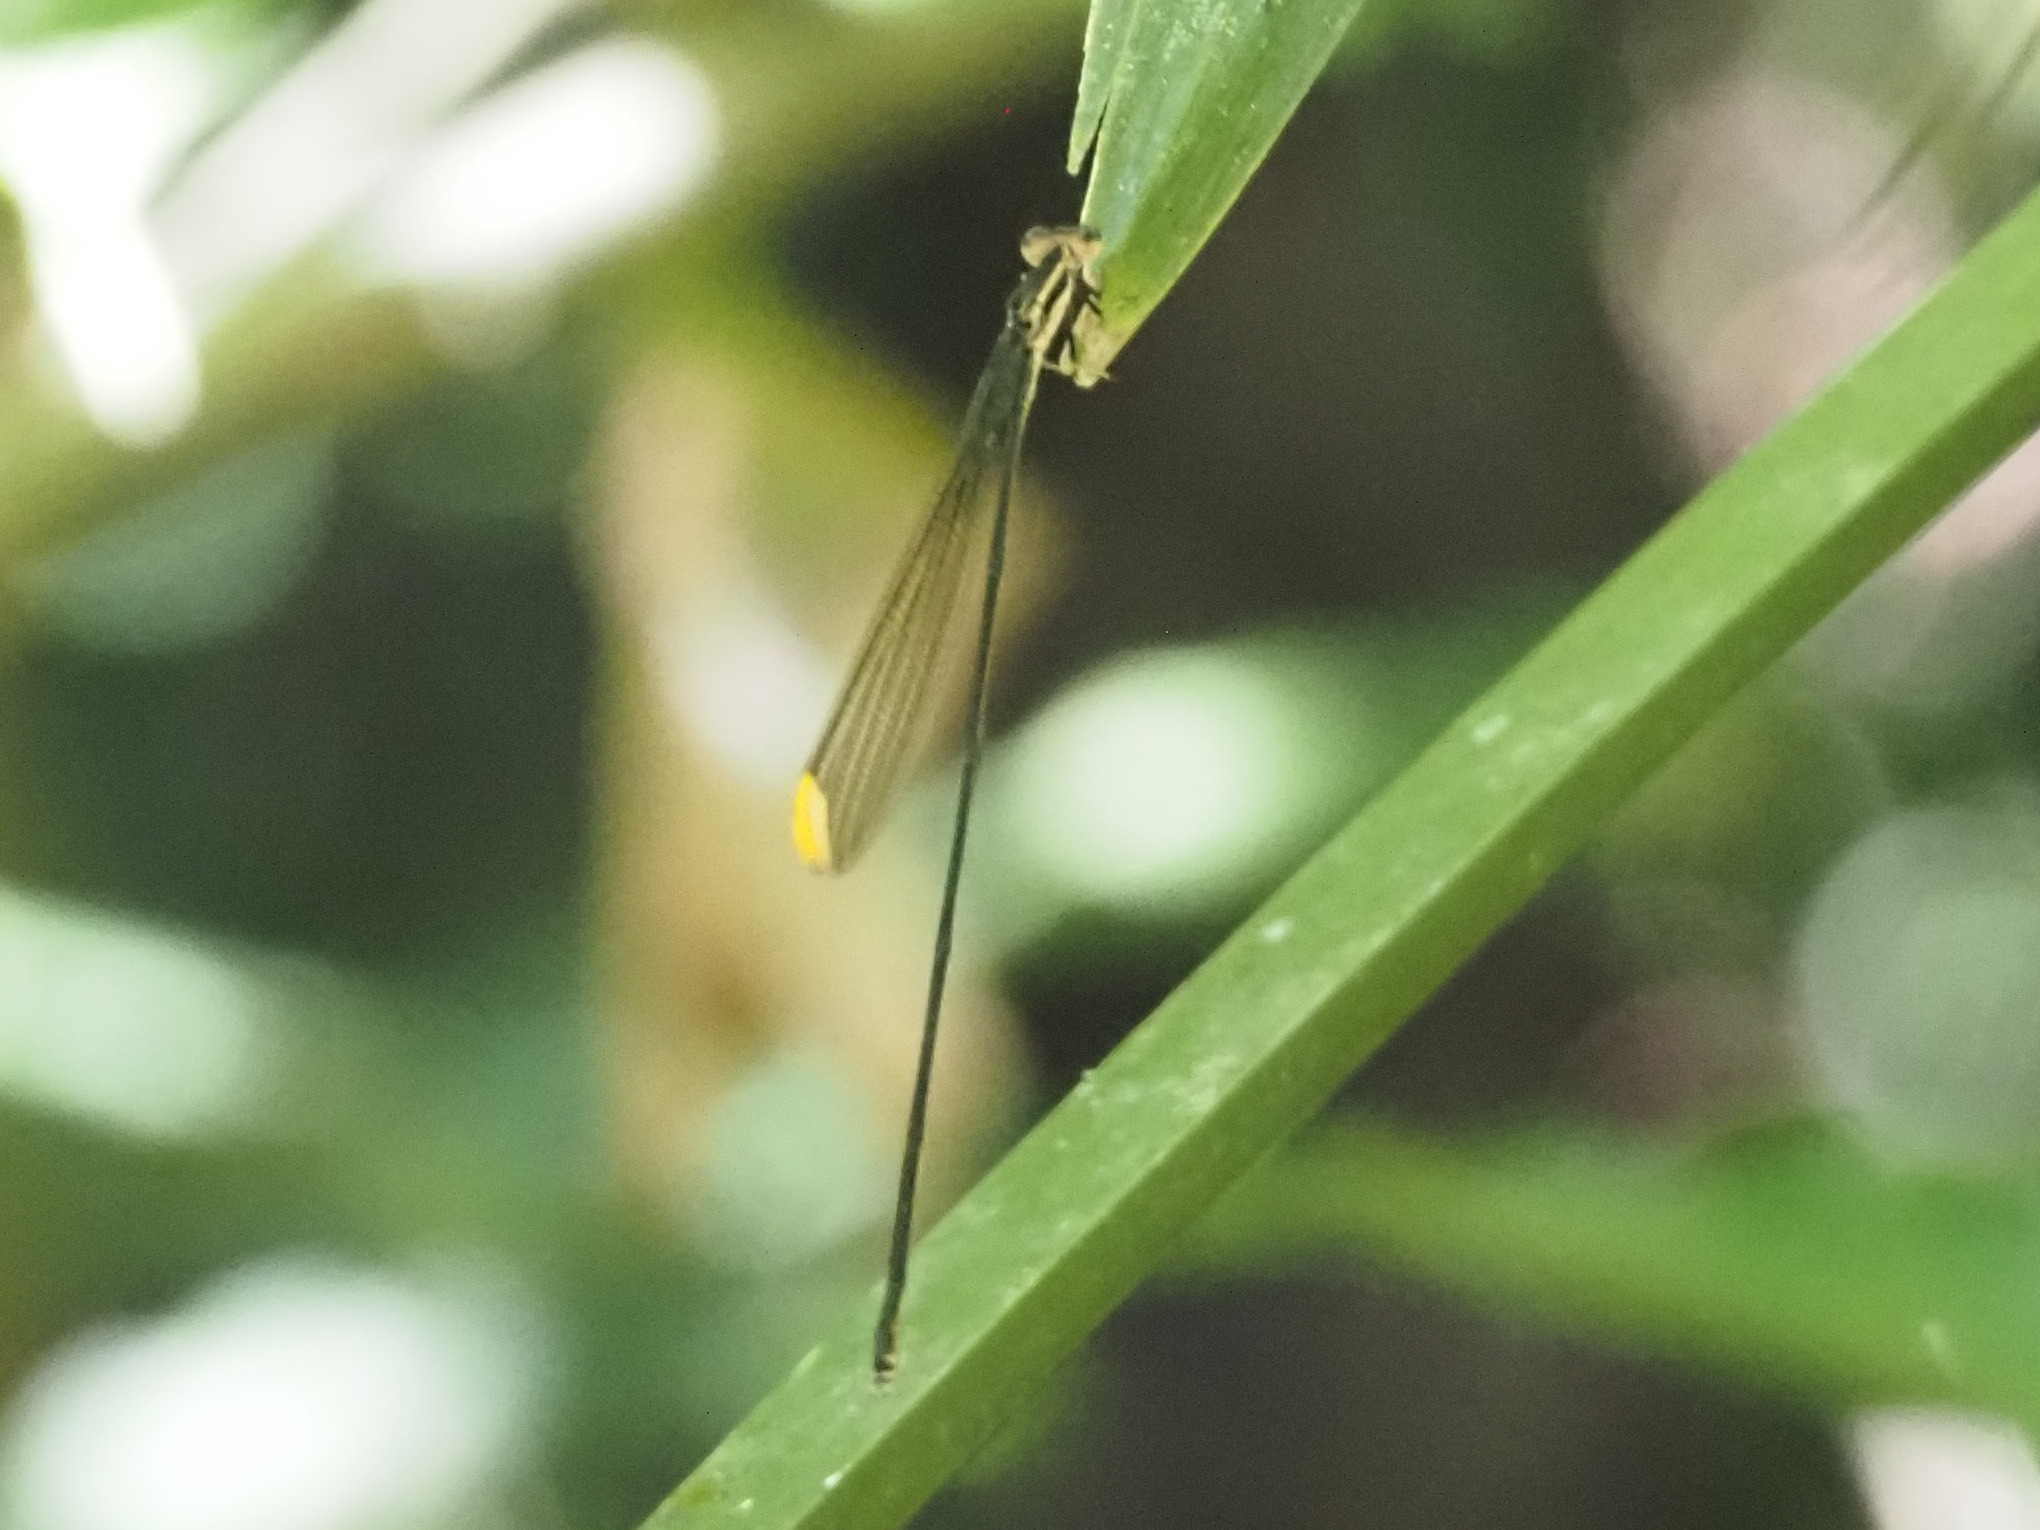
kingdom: Animalia
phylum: Arthropoda
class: Insecta
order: Odonata
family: Coenagrionidae
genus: Mecistogaster
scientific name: Mecistogaster ornata
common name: Ornate helicopter
